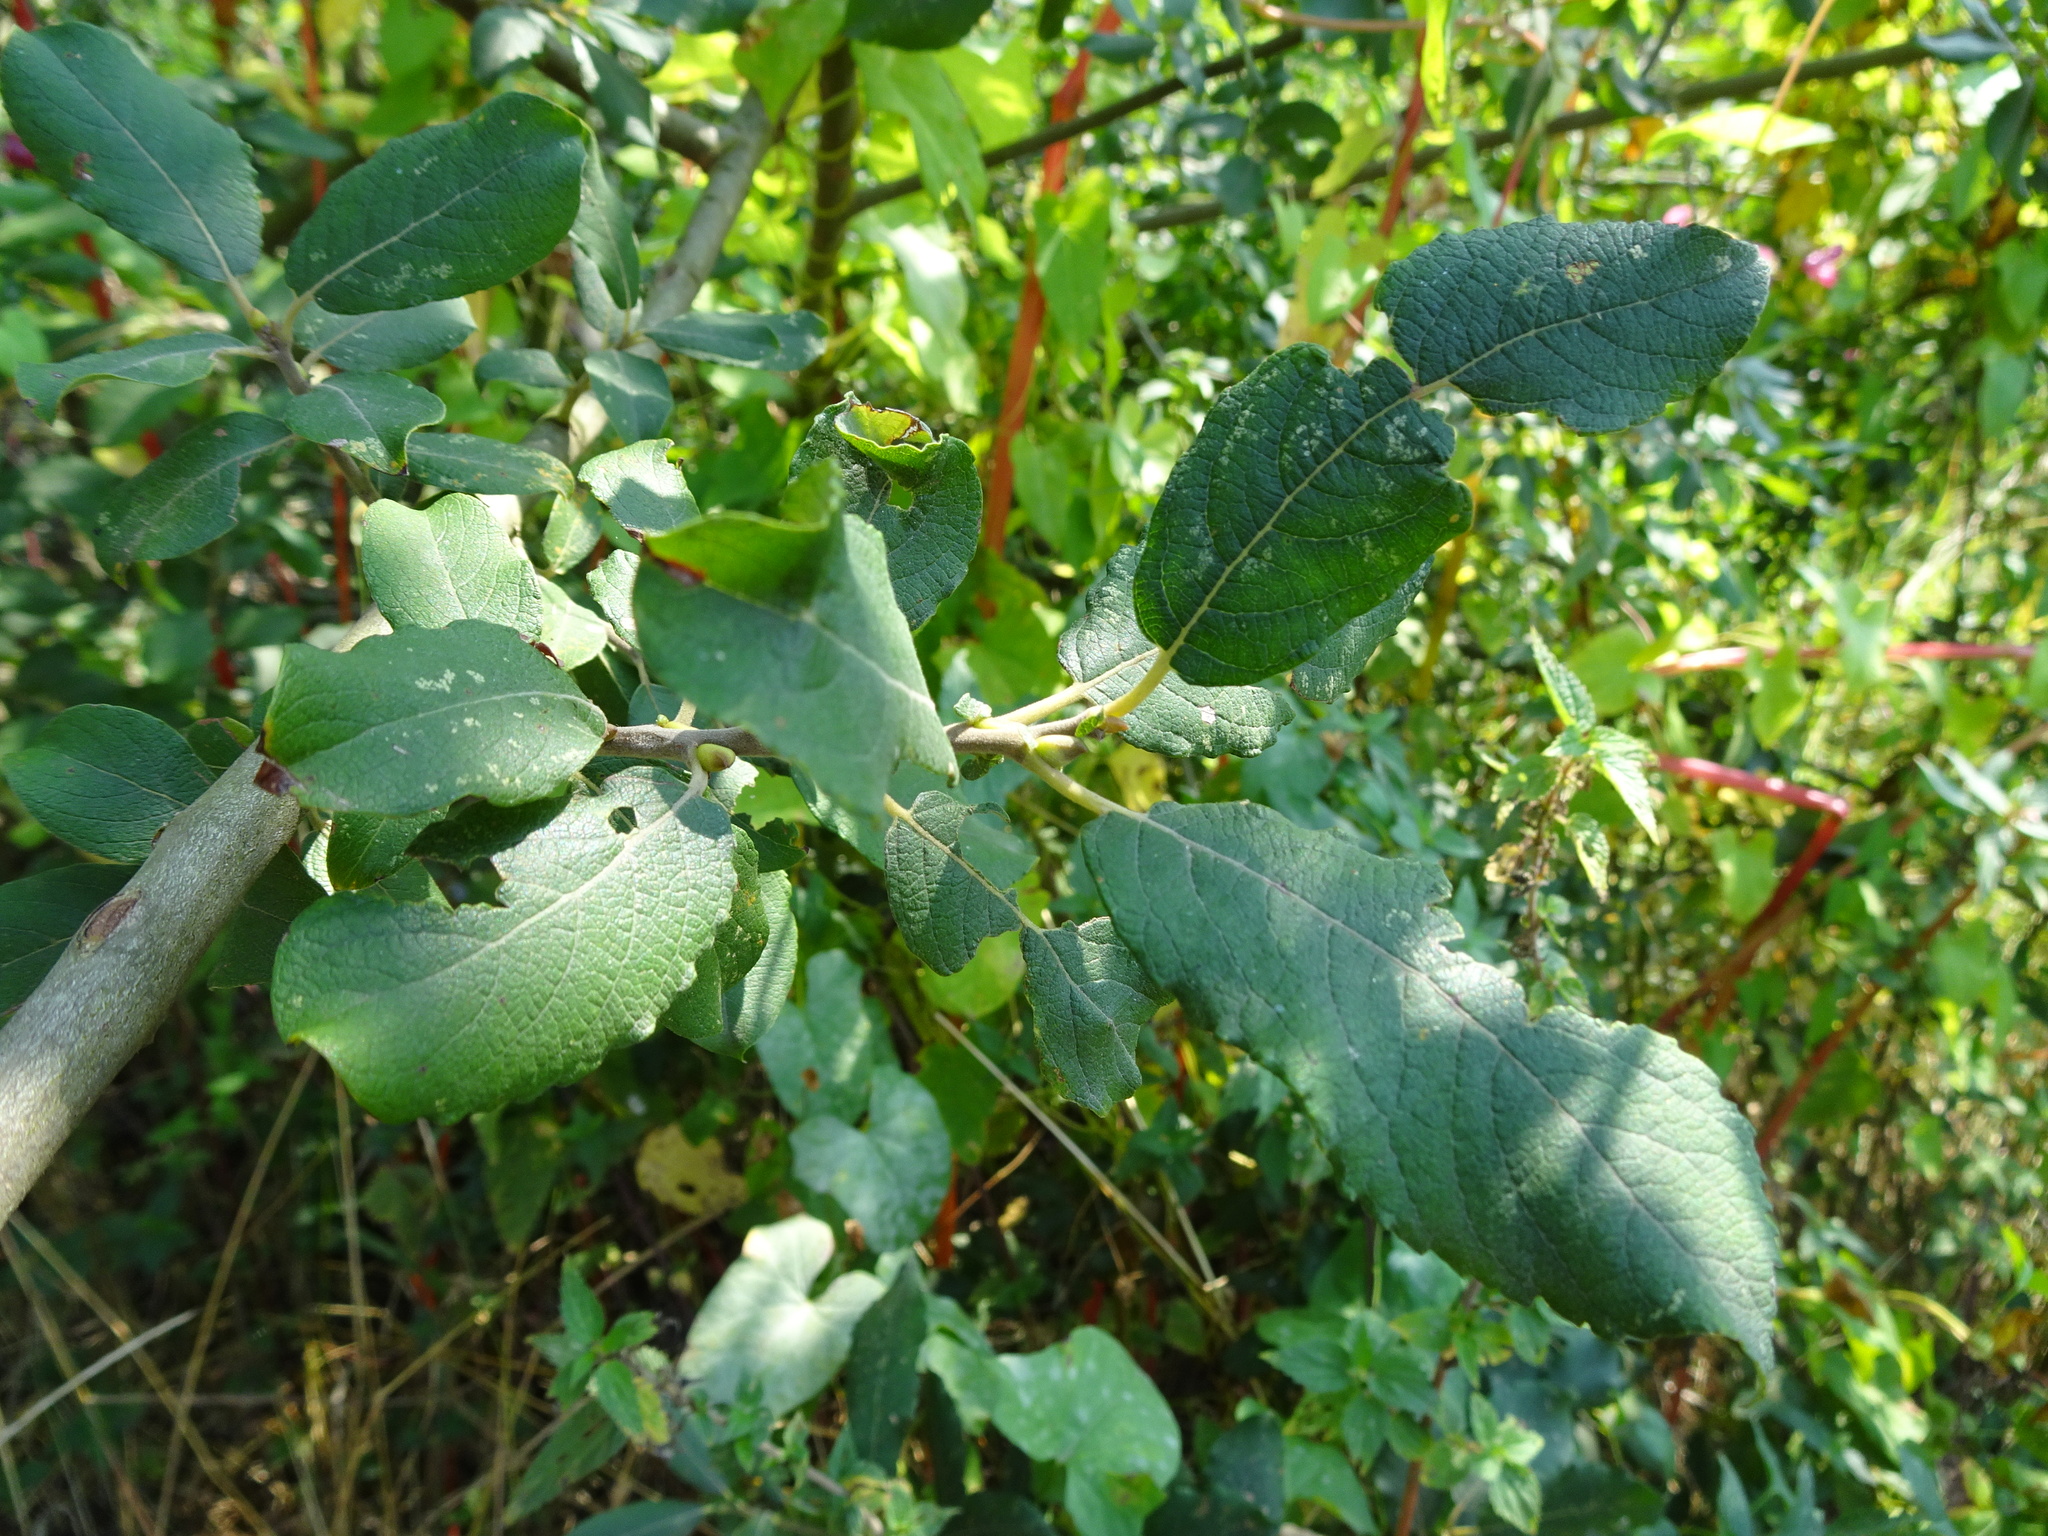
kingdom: Plantae
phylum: Tracheophyta
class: Magnoliopsida
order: Malpighiales
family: Salicaceae
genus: Salix
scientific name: Salix cinerea
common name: Common sallow
